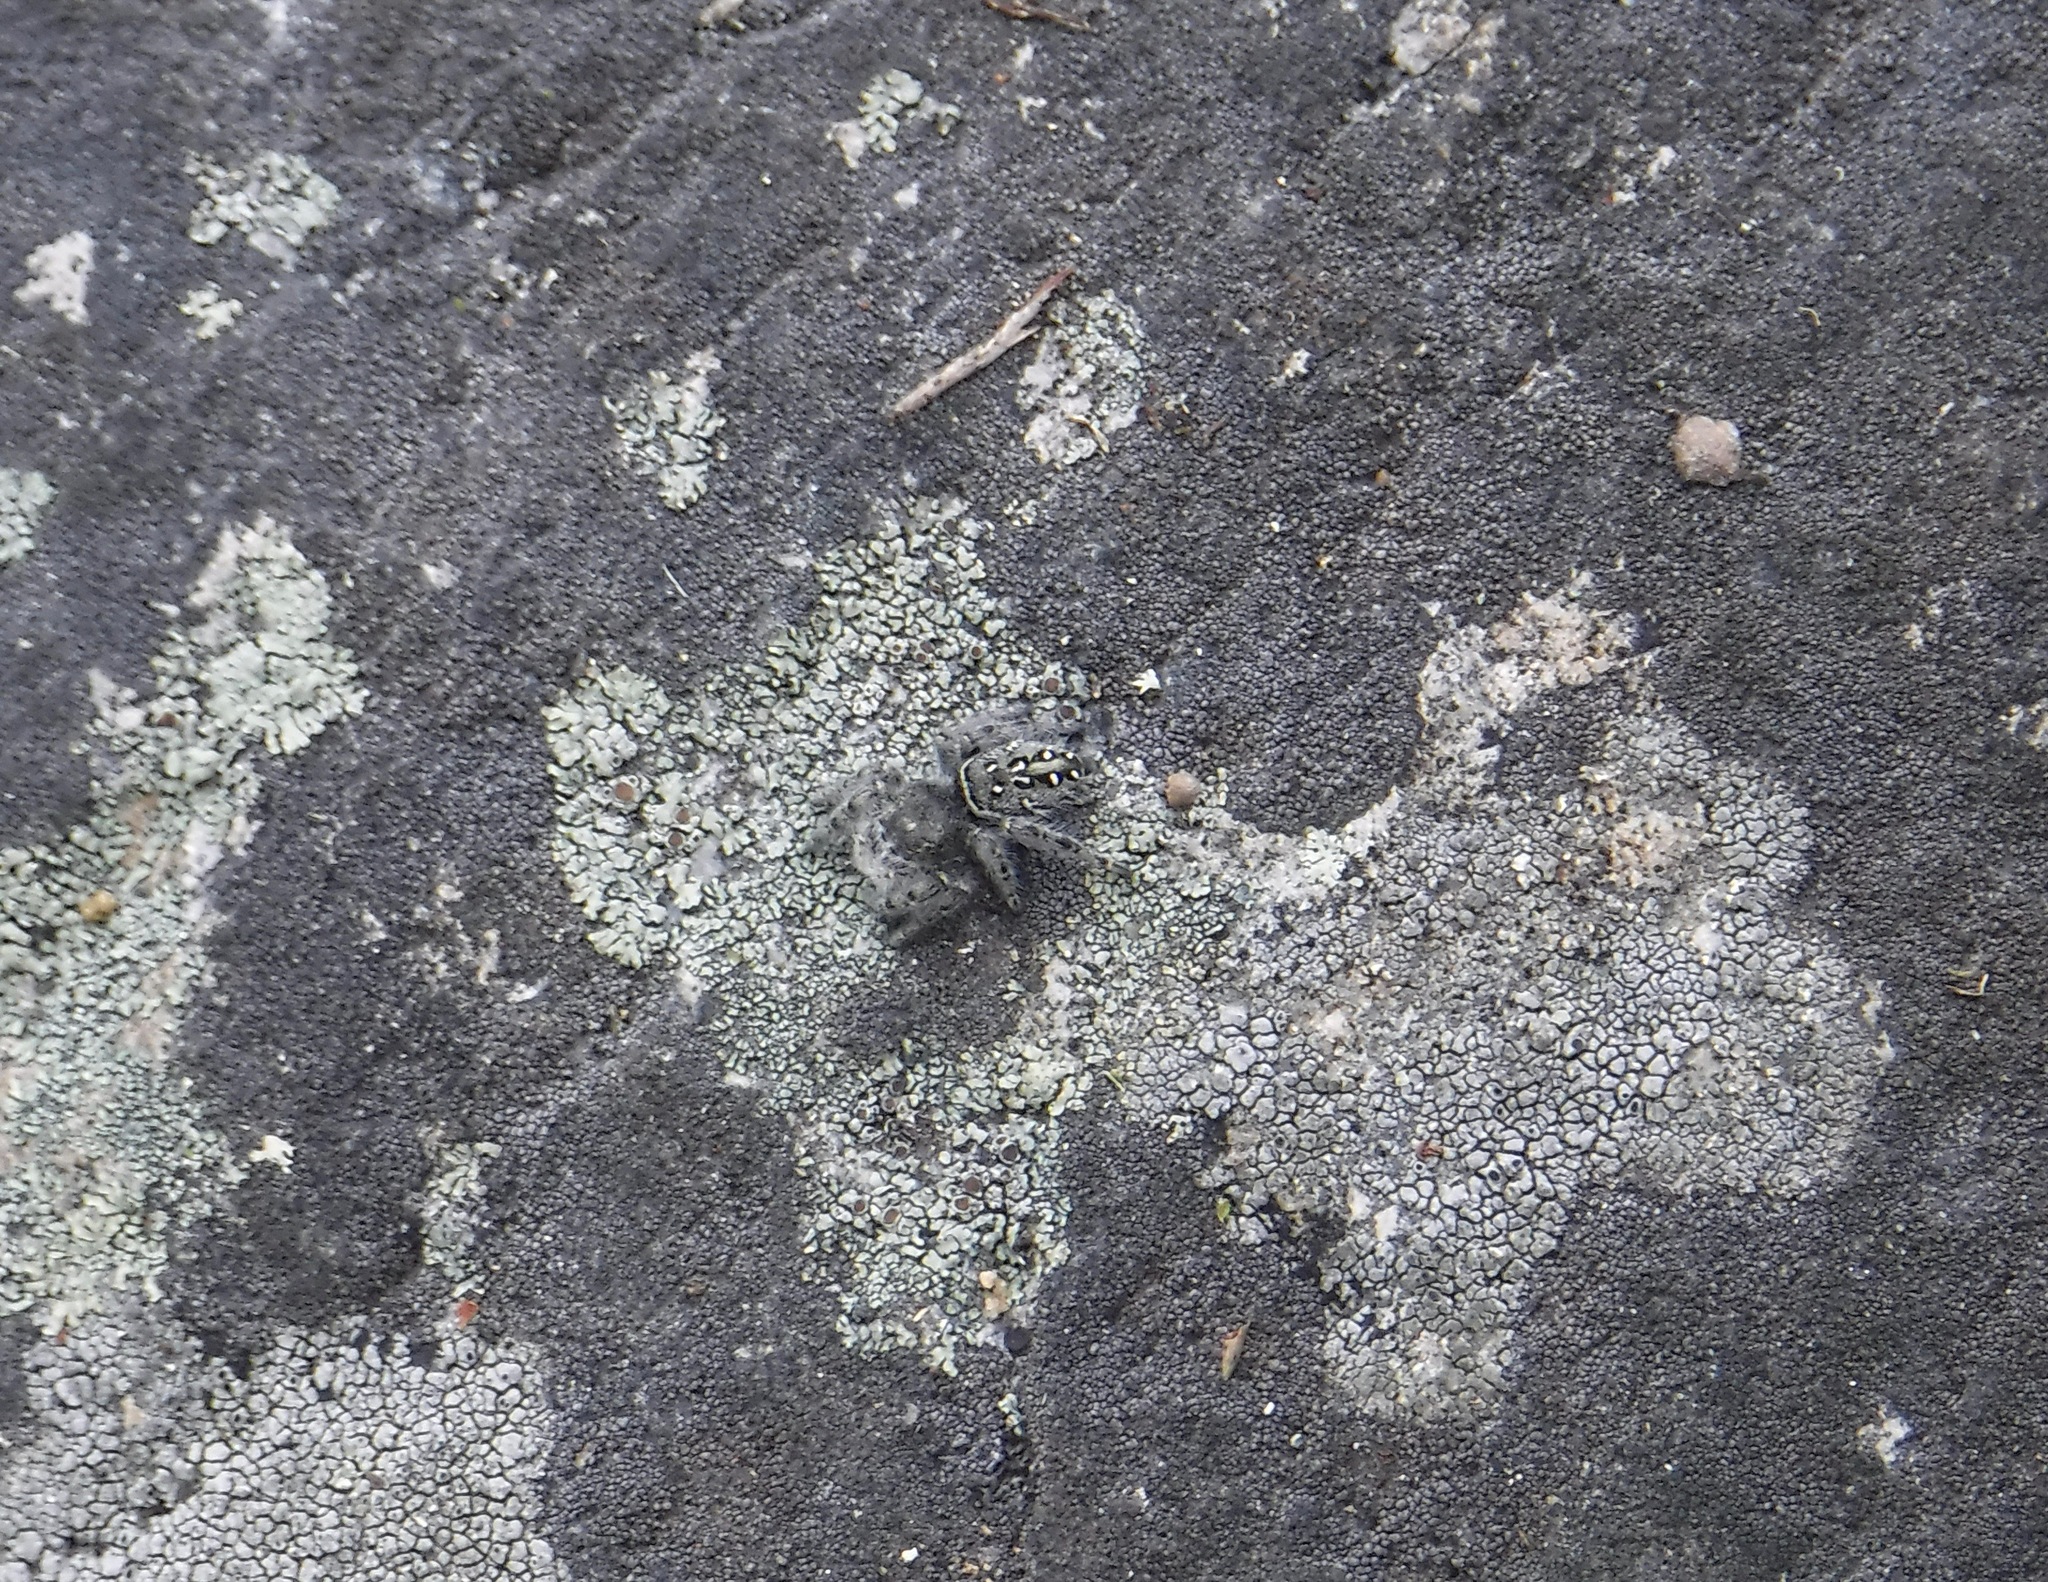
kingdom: Animalia
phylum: Arthropoda
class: Arachnida
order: Araneae
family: Salticidae
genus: Phidippus
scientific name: Phidippus purpuratus
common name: Marbled purple jumping spider
